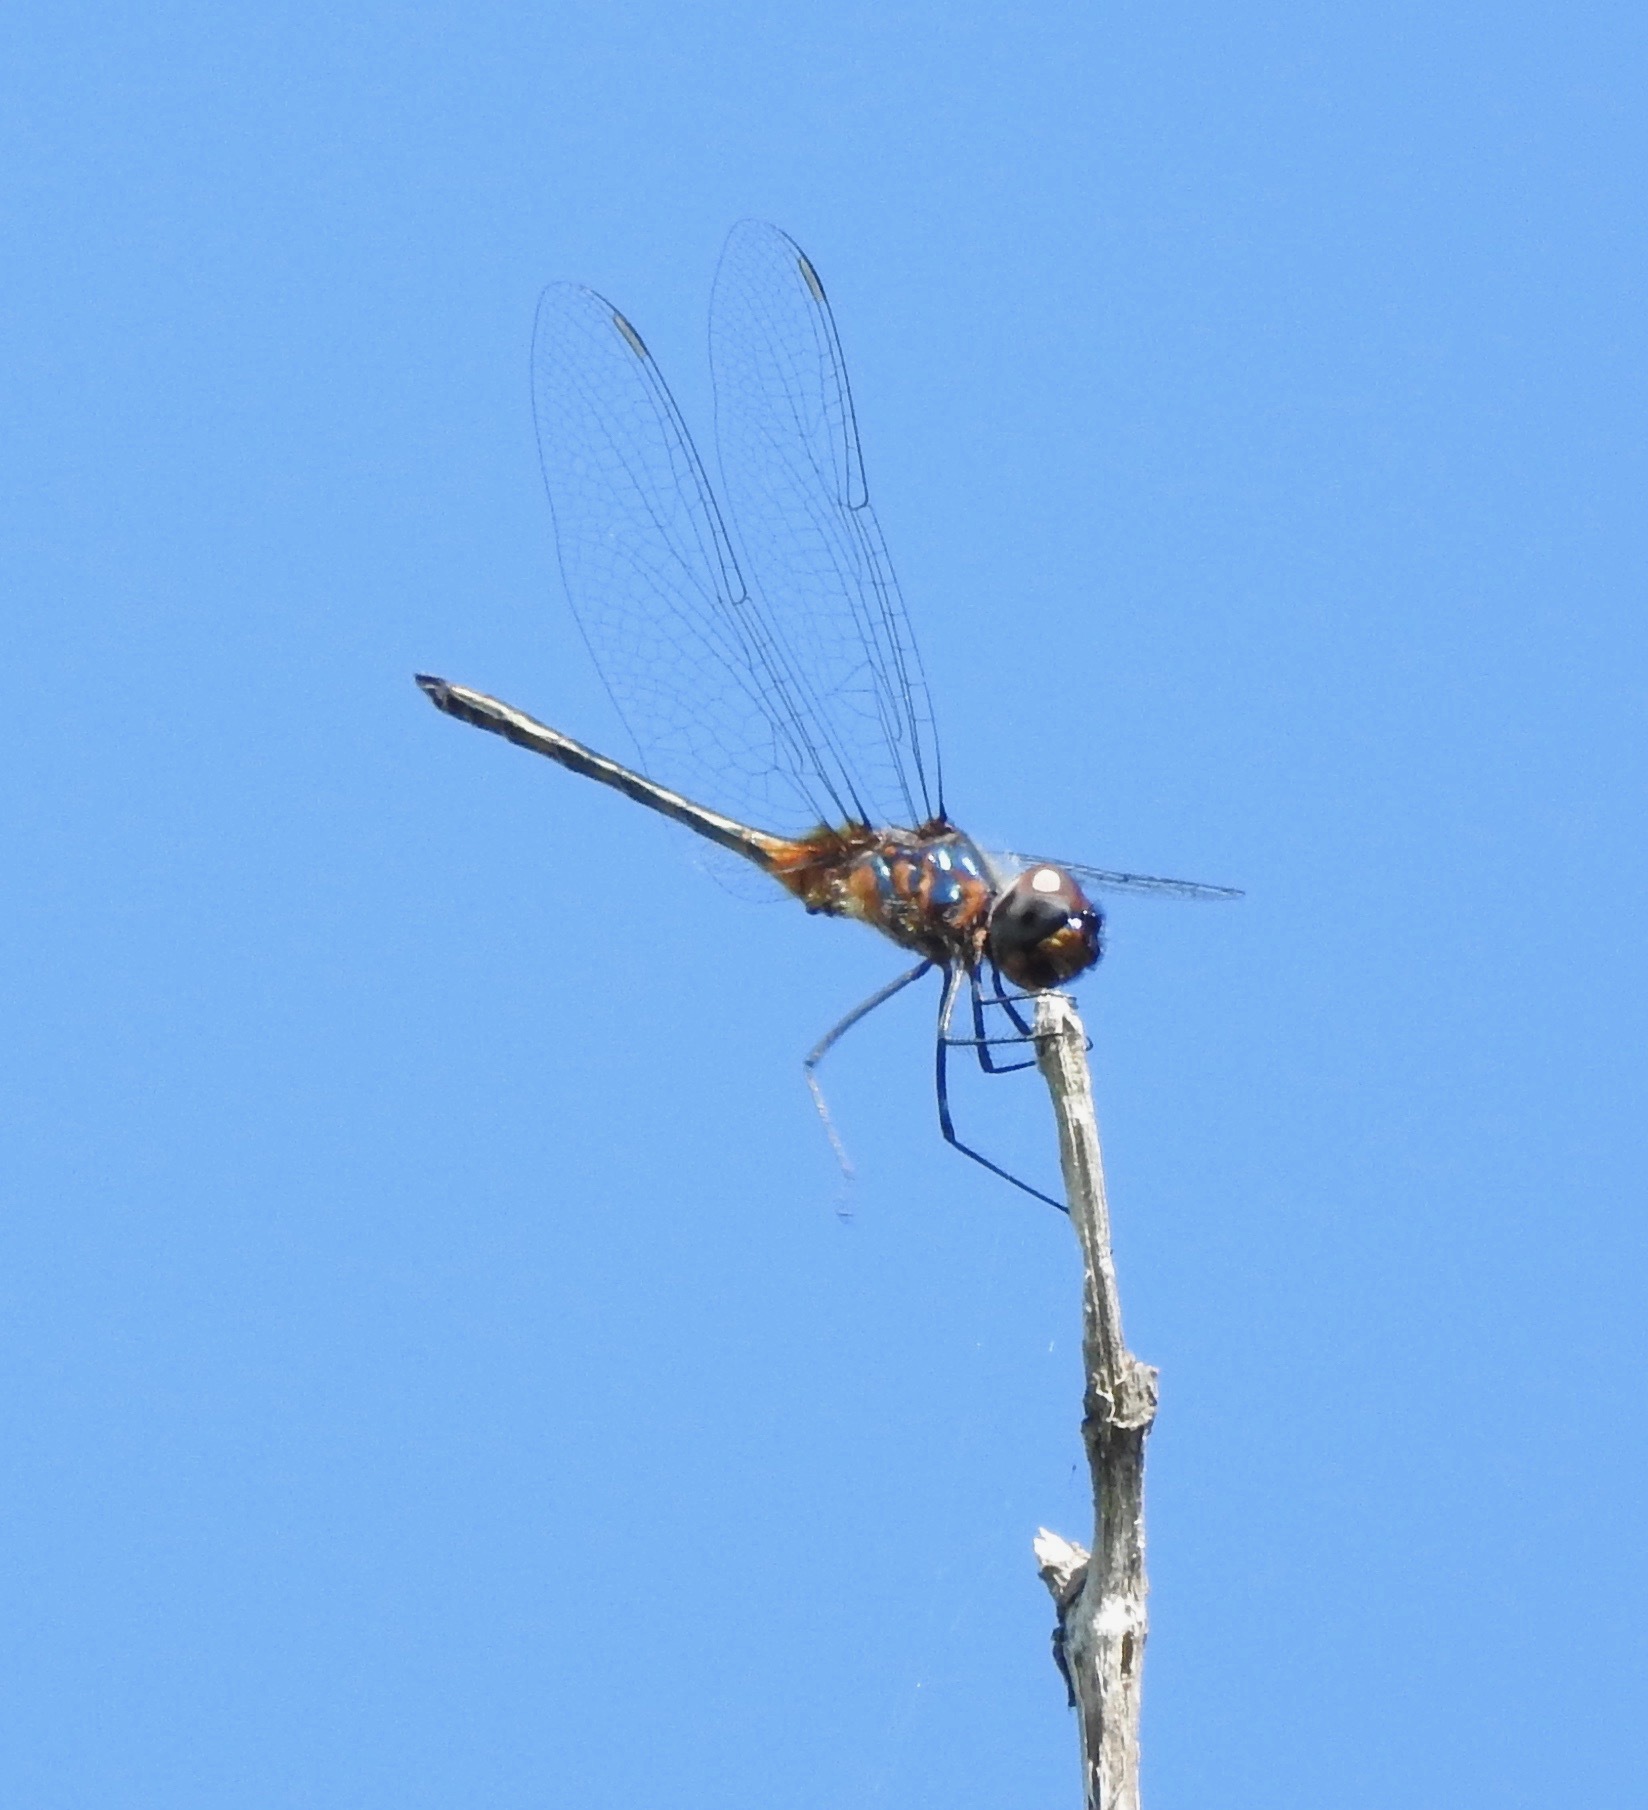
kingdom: Animalia
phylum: Arthropoda
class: Insecta
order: Odonata
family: Libellulidae
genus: Idiataphe
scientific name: Idiataphe cubensis
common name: Metallic pennant
